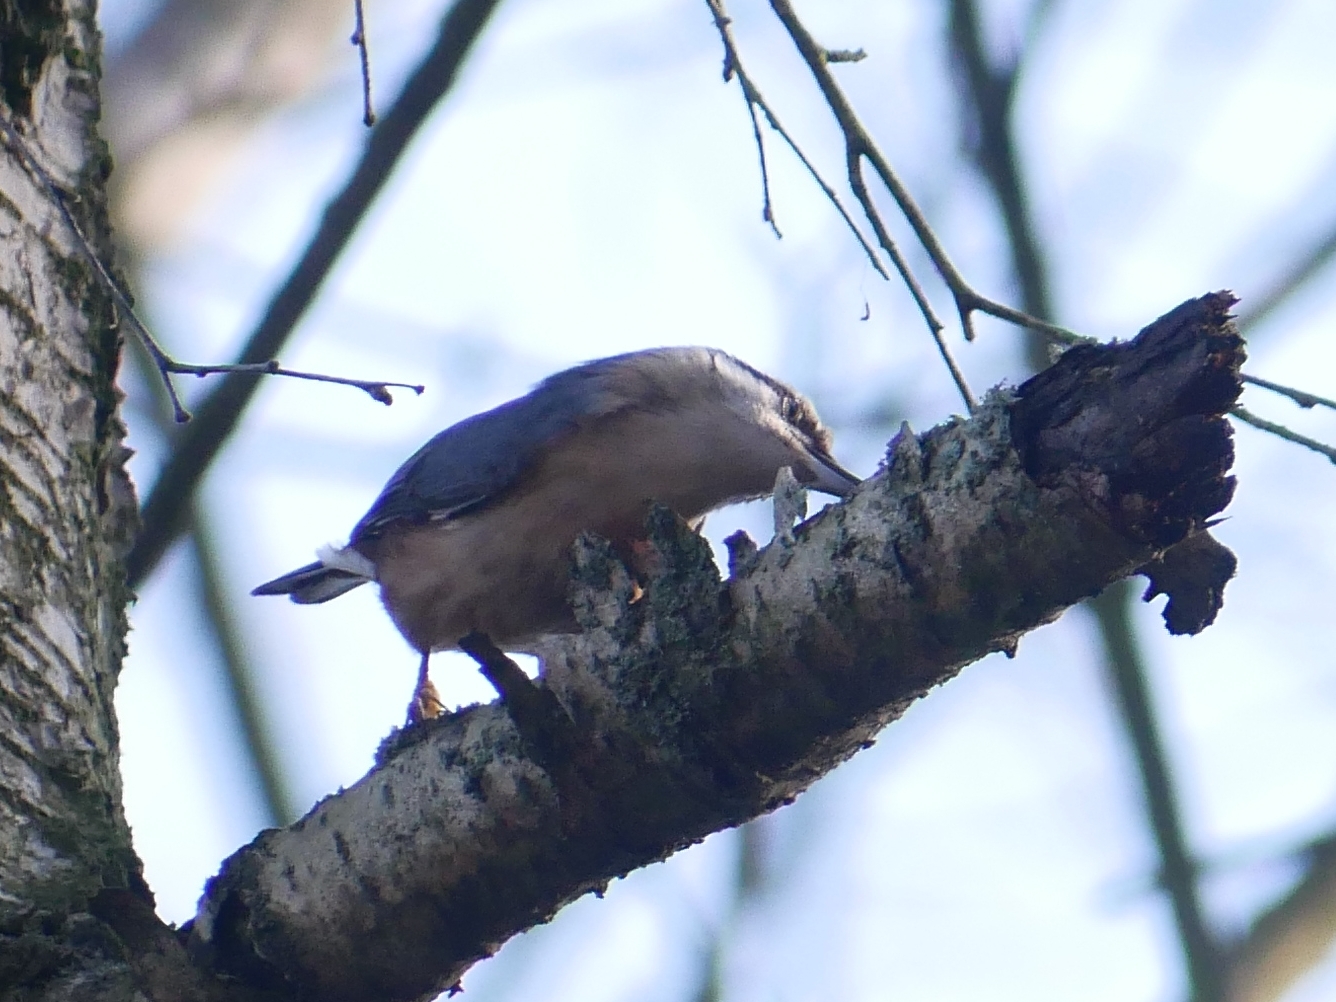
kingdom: Animalia
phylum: Chordata
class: Aves
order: Passeriformes
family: Sittidae
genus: Sitta
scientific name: Sitta europaea
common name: Eurasian nuthatch
